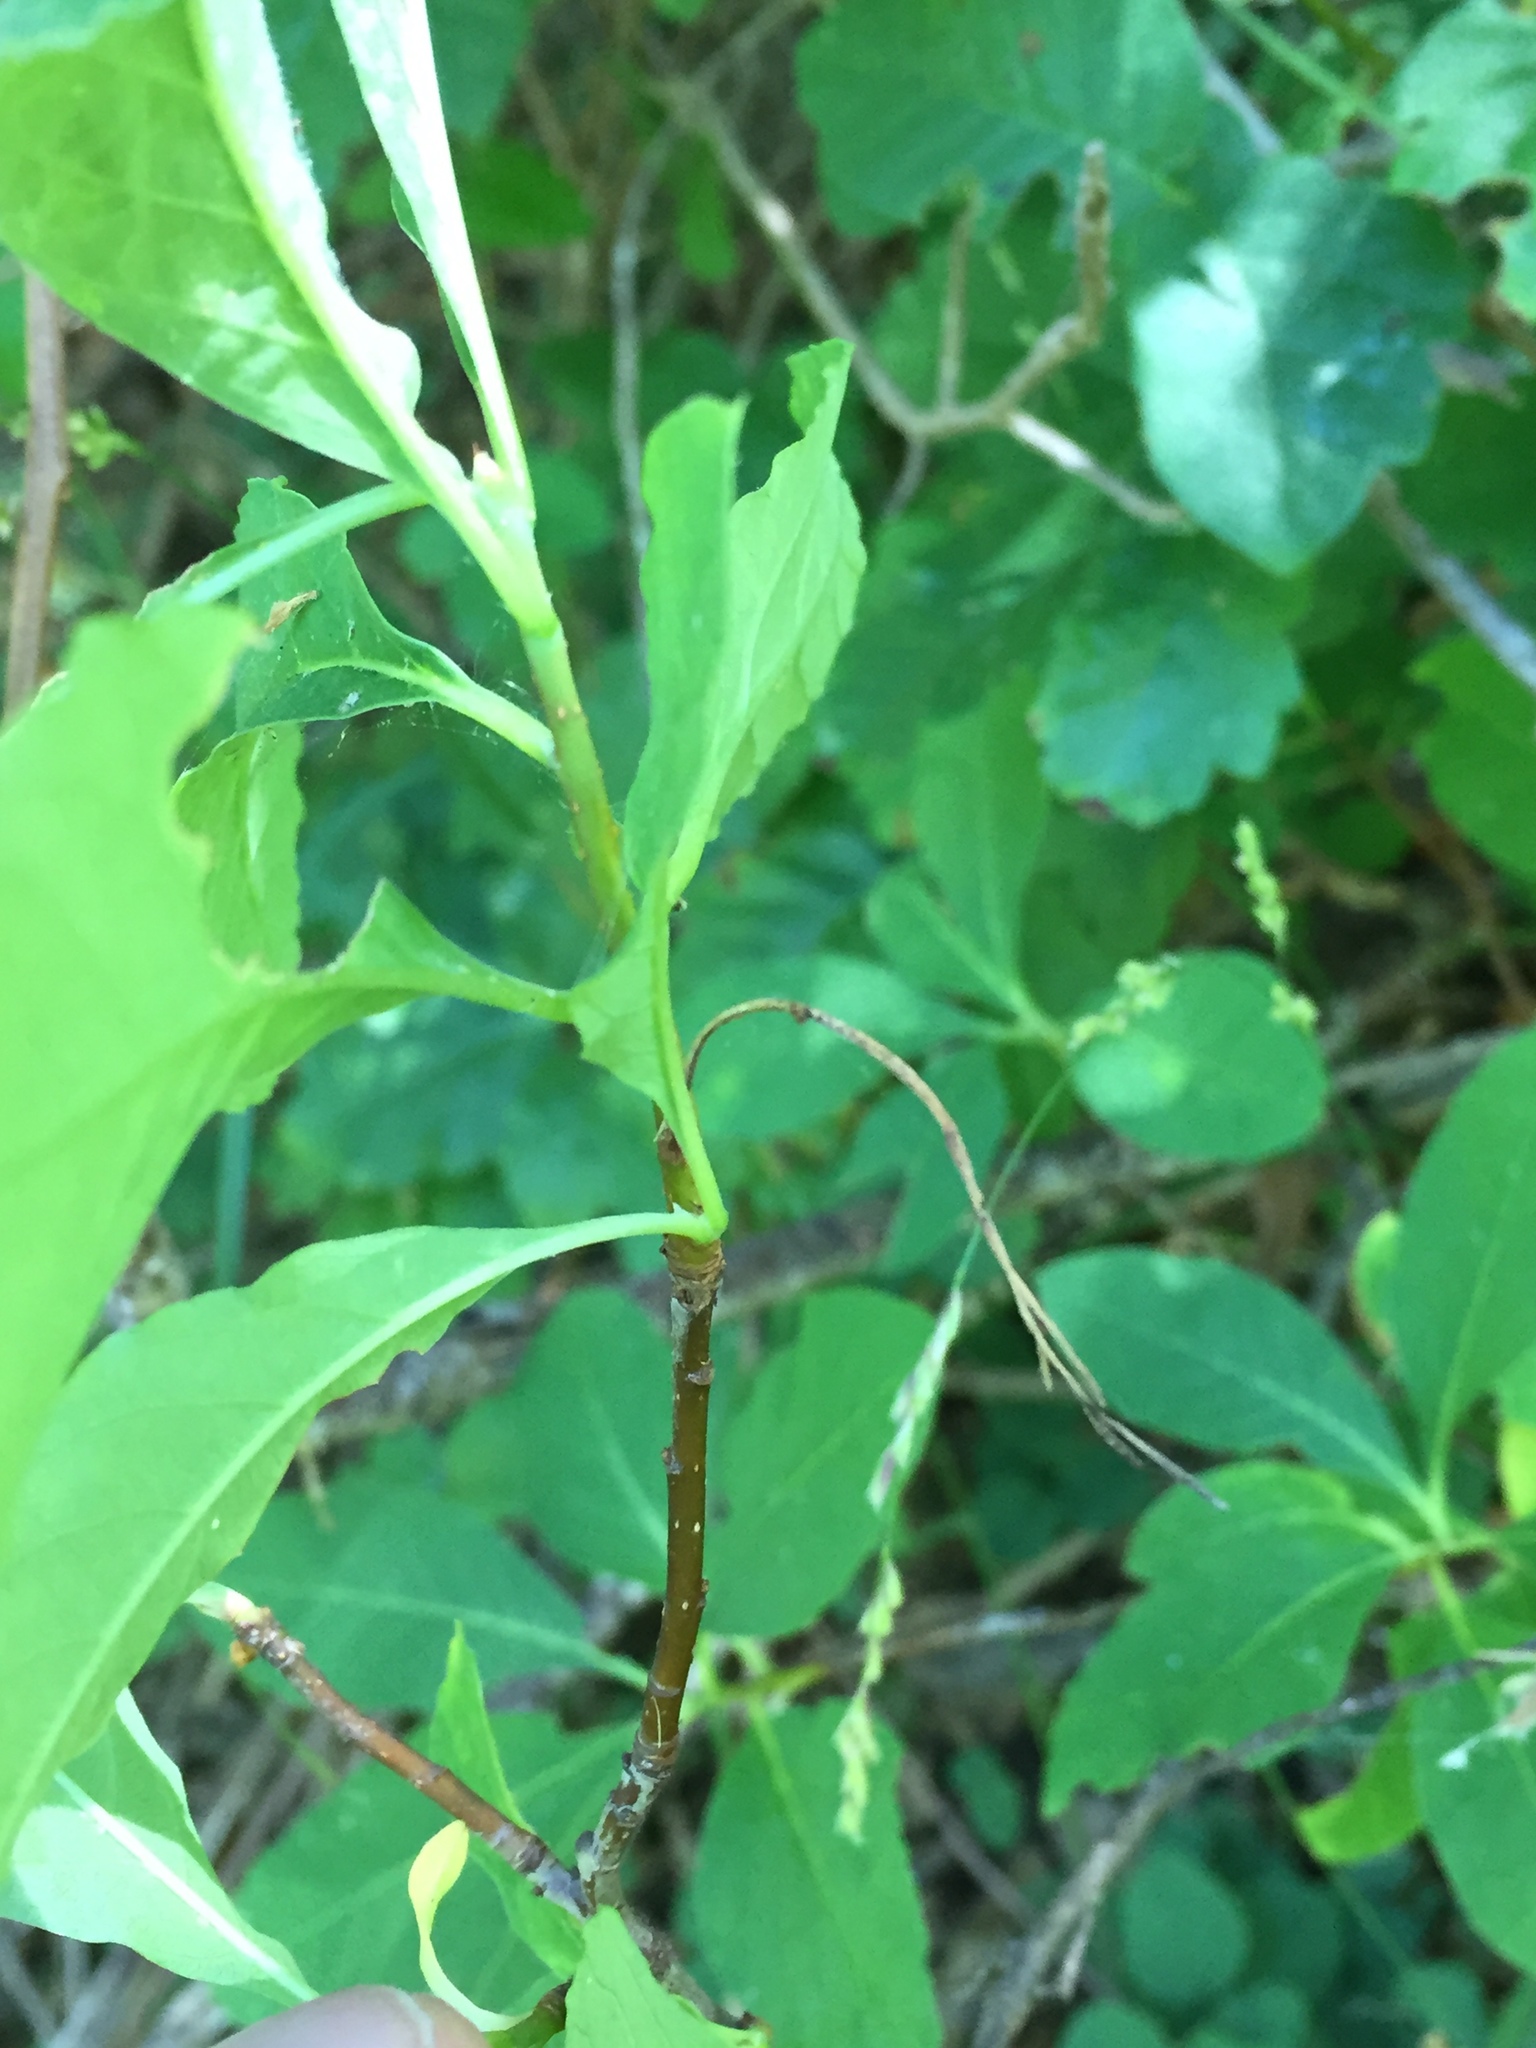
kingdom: Plantae
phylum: Tracheophyta
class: Magnoliopsida
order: Rosales
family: Rosaceae
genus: Oemleria
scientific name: Oemleria cerasiformis
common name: Osoberry
